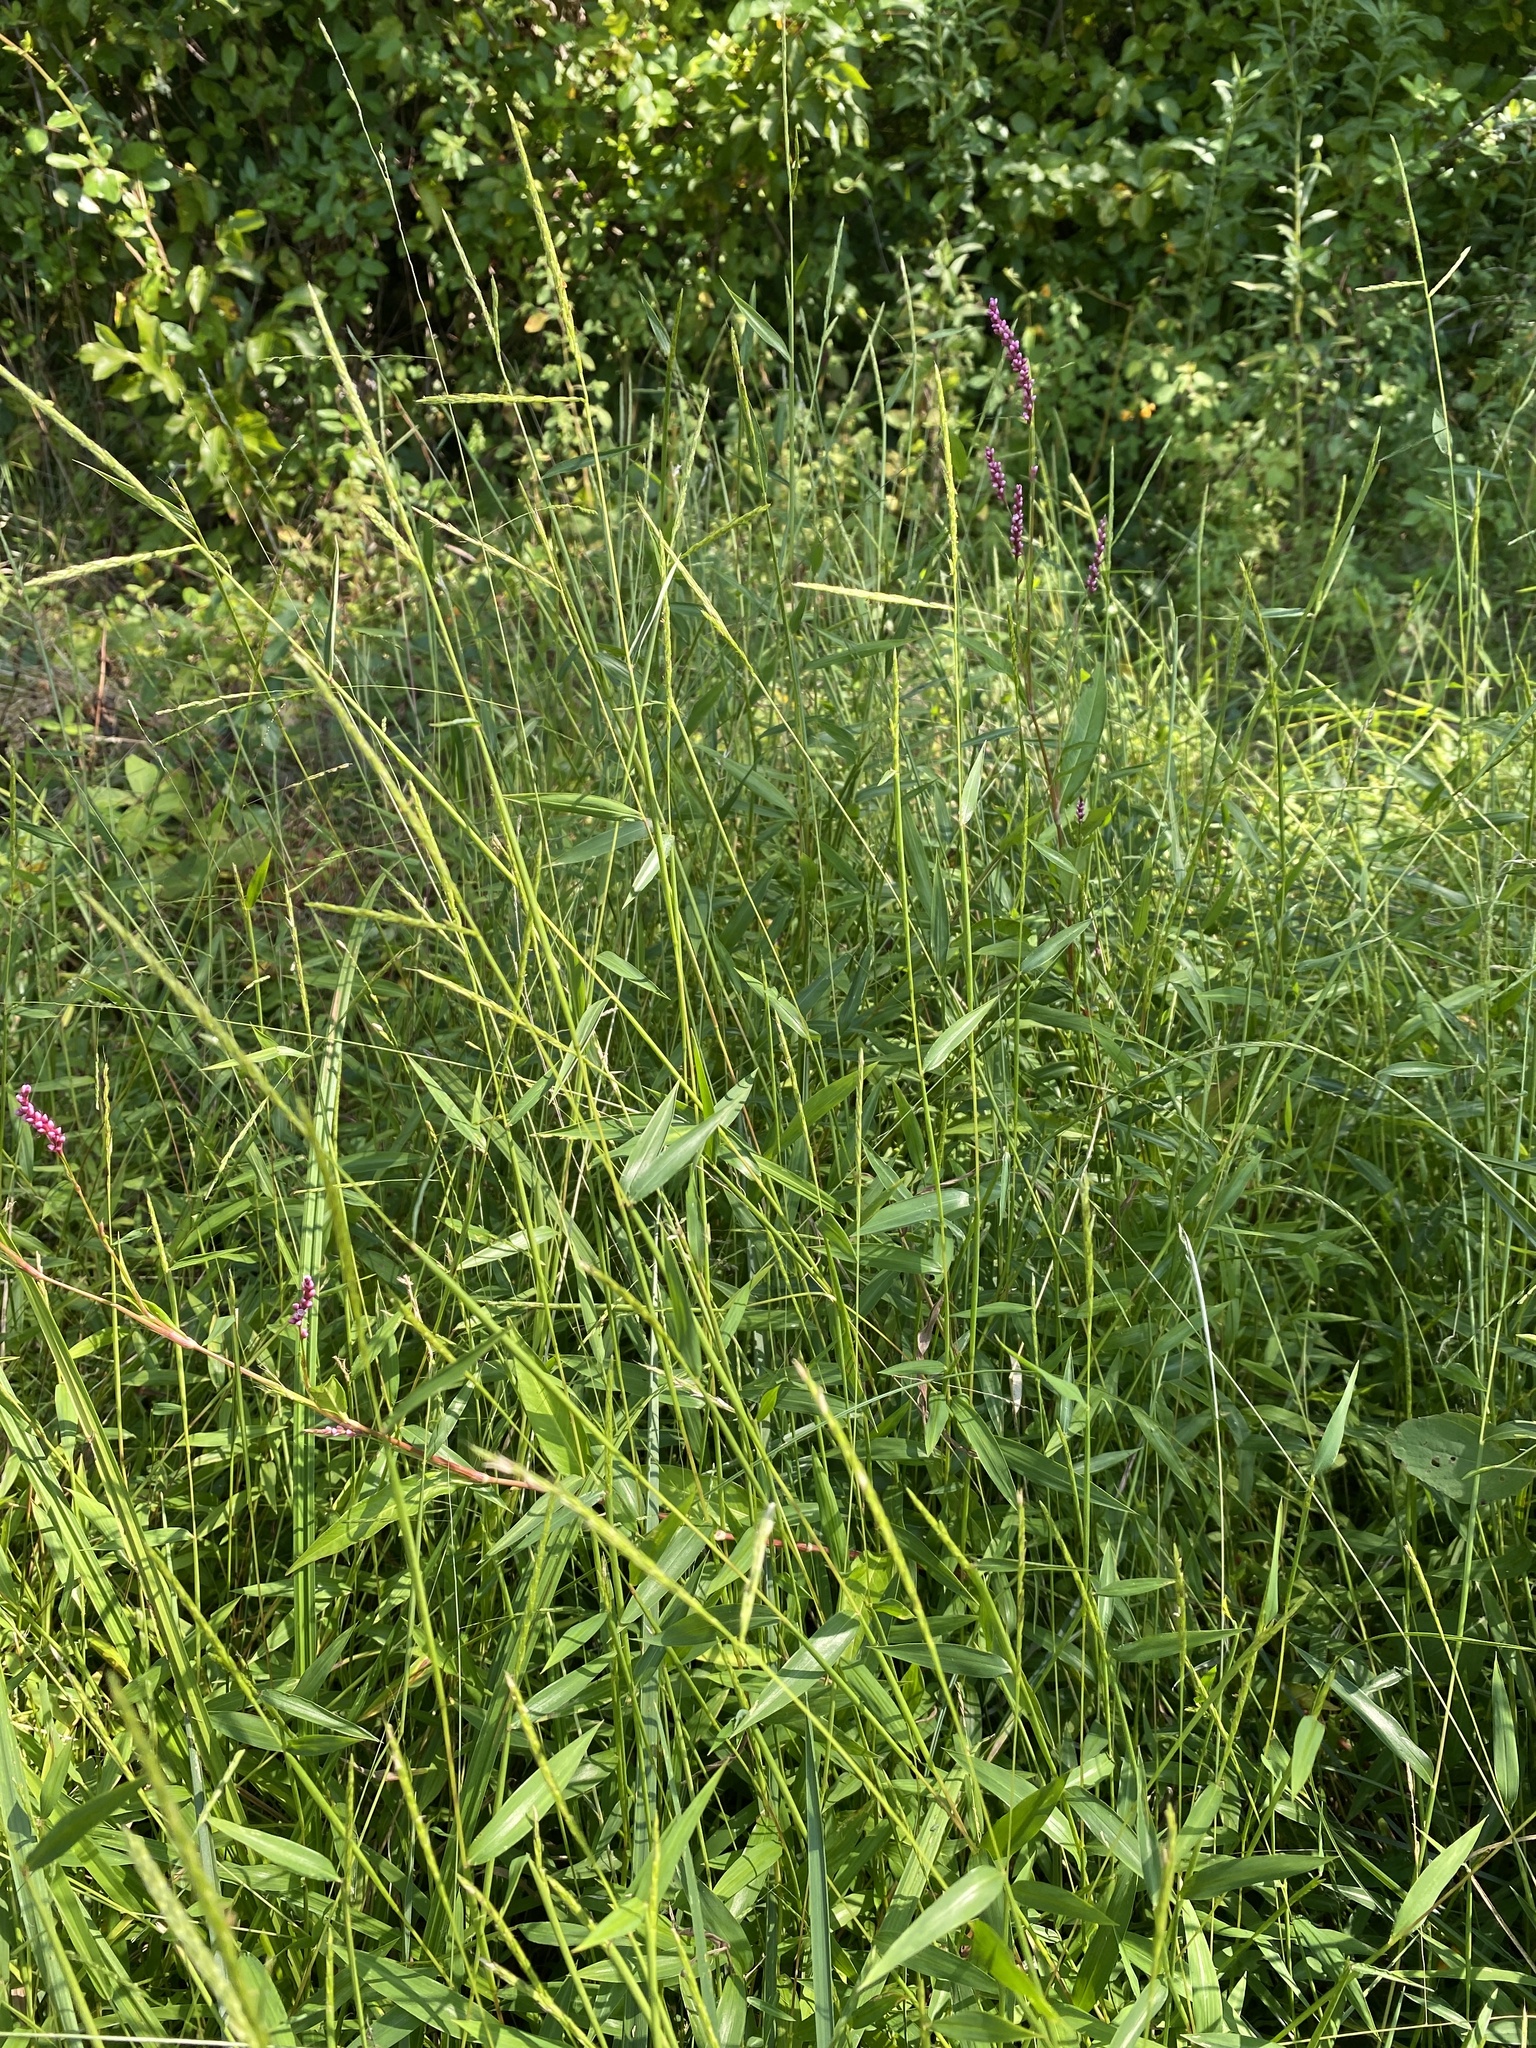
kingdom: Plantae
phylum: Tracheophyta
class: Liliopsida
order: Poales
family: Poaceae
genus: Microstegium
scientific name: Microstegium vimineum
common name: Japanese stiltgrass
